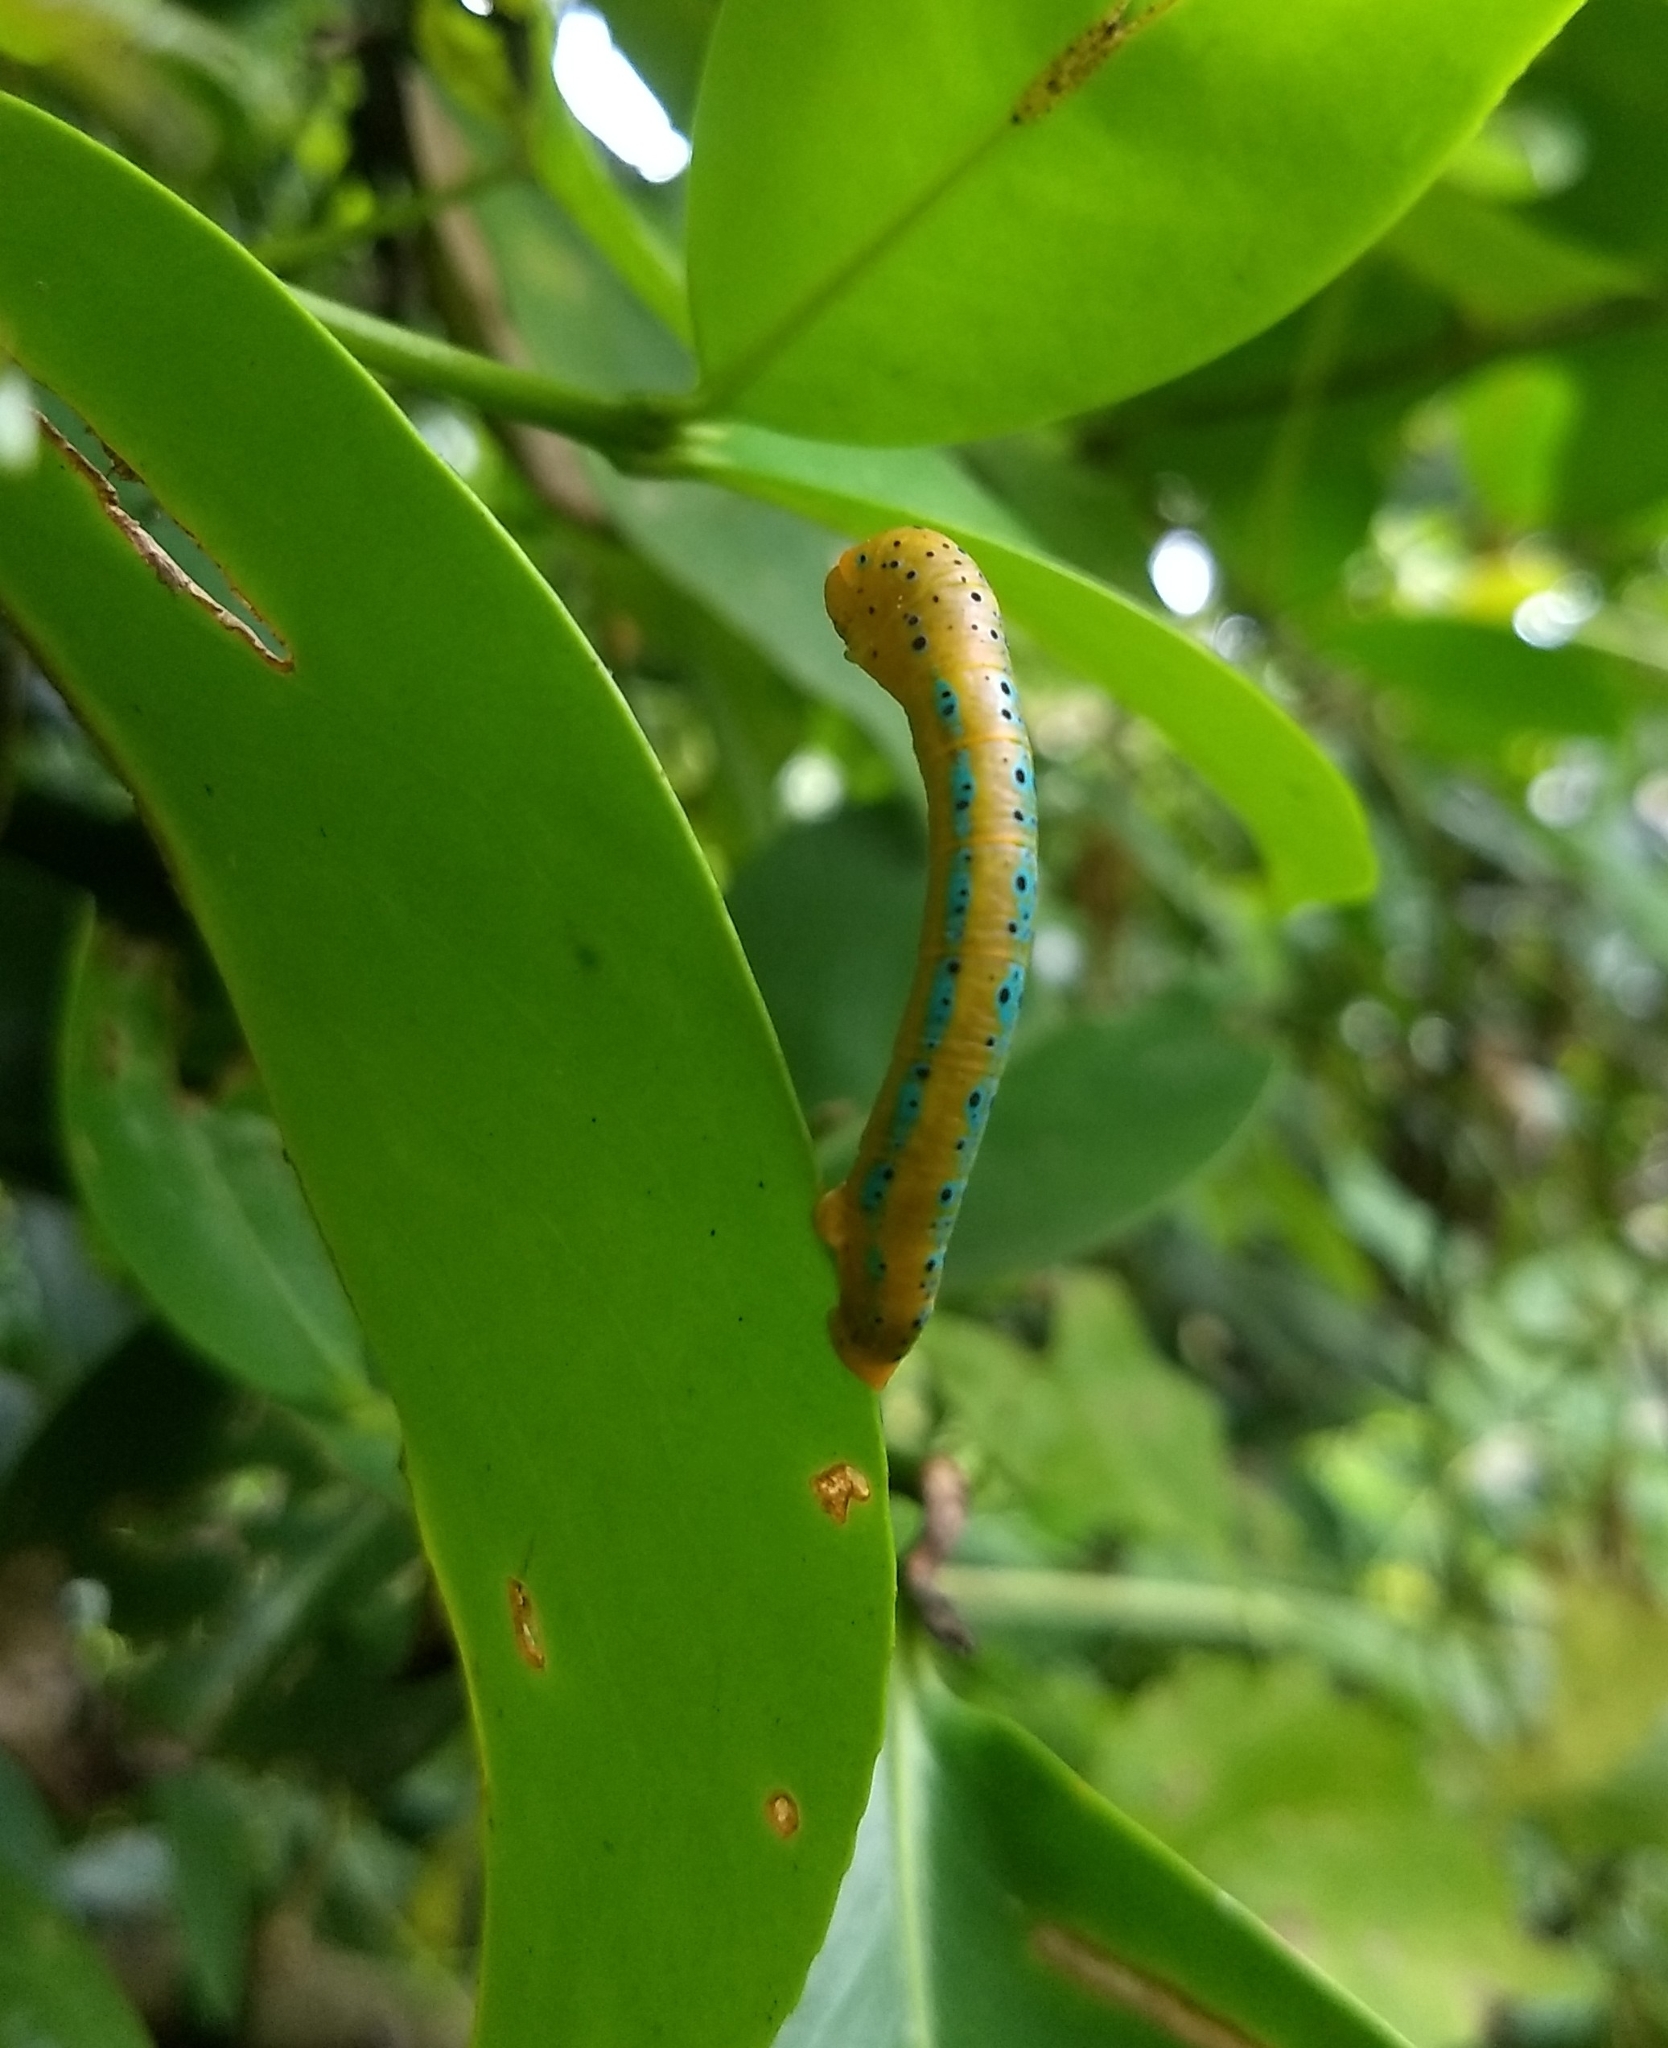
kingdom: Animalia
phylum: Arthropoda
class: Insecta
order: Lepidoptera
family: Geometridae
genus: Dysphania
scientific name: Dysphania percota
